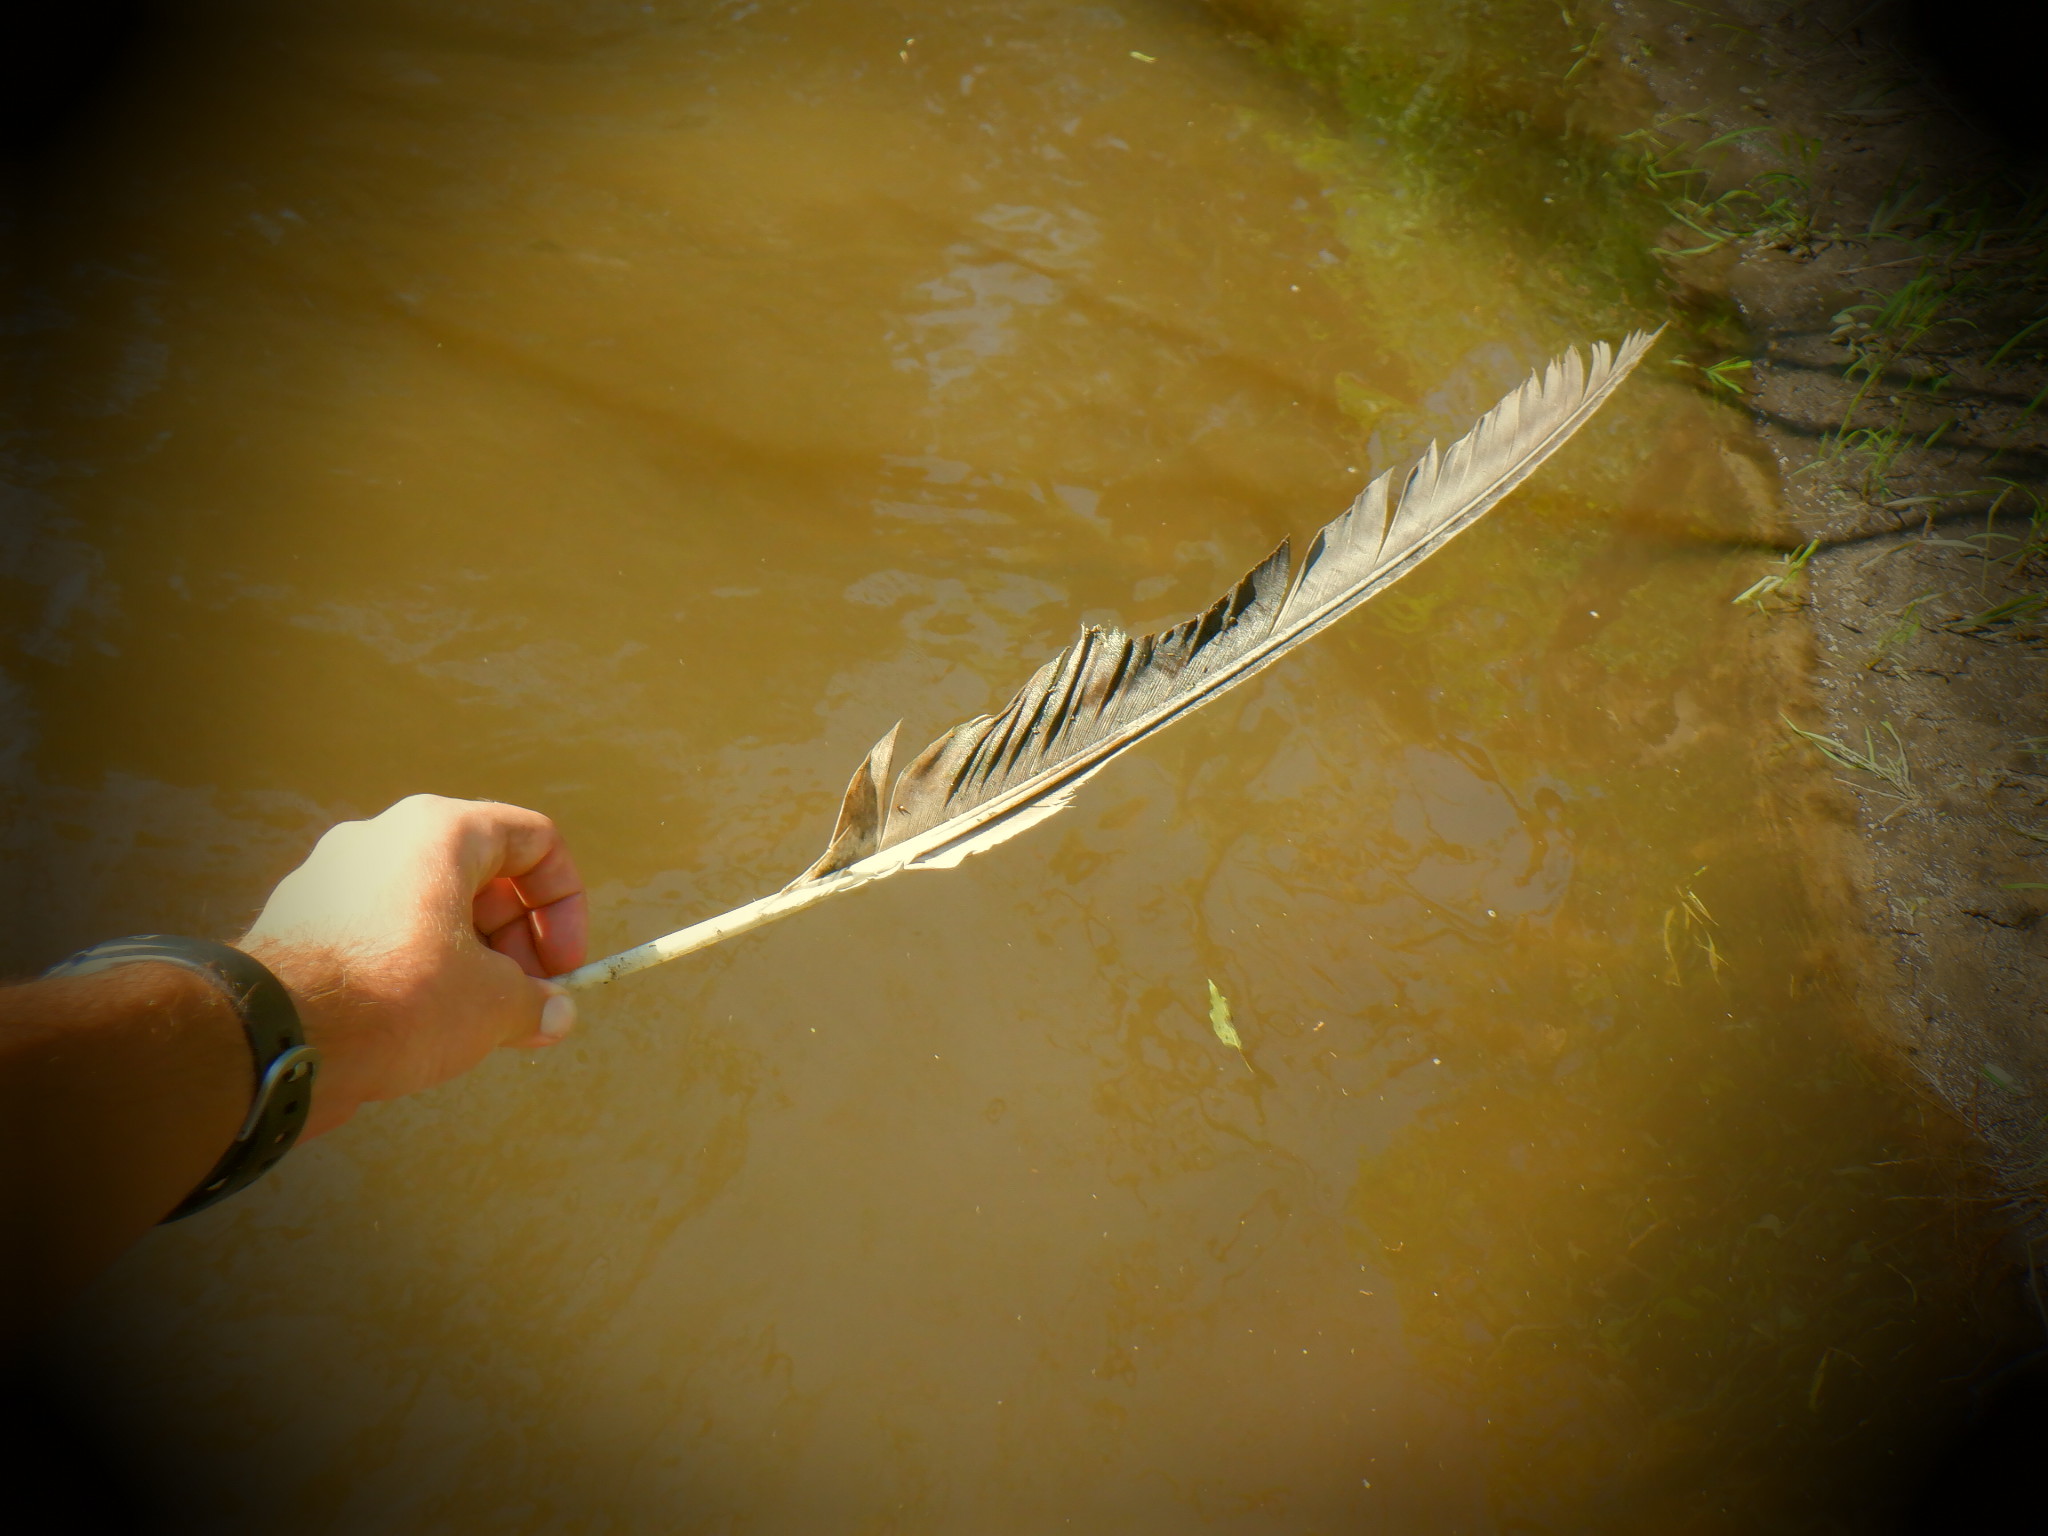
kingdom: Animalia
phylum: Chordata
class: Aves
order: Accipitriformes
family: Accipitridae
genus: Haliaeetus
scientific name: Haliaeetus leucocephalus
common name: Bald eagle
